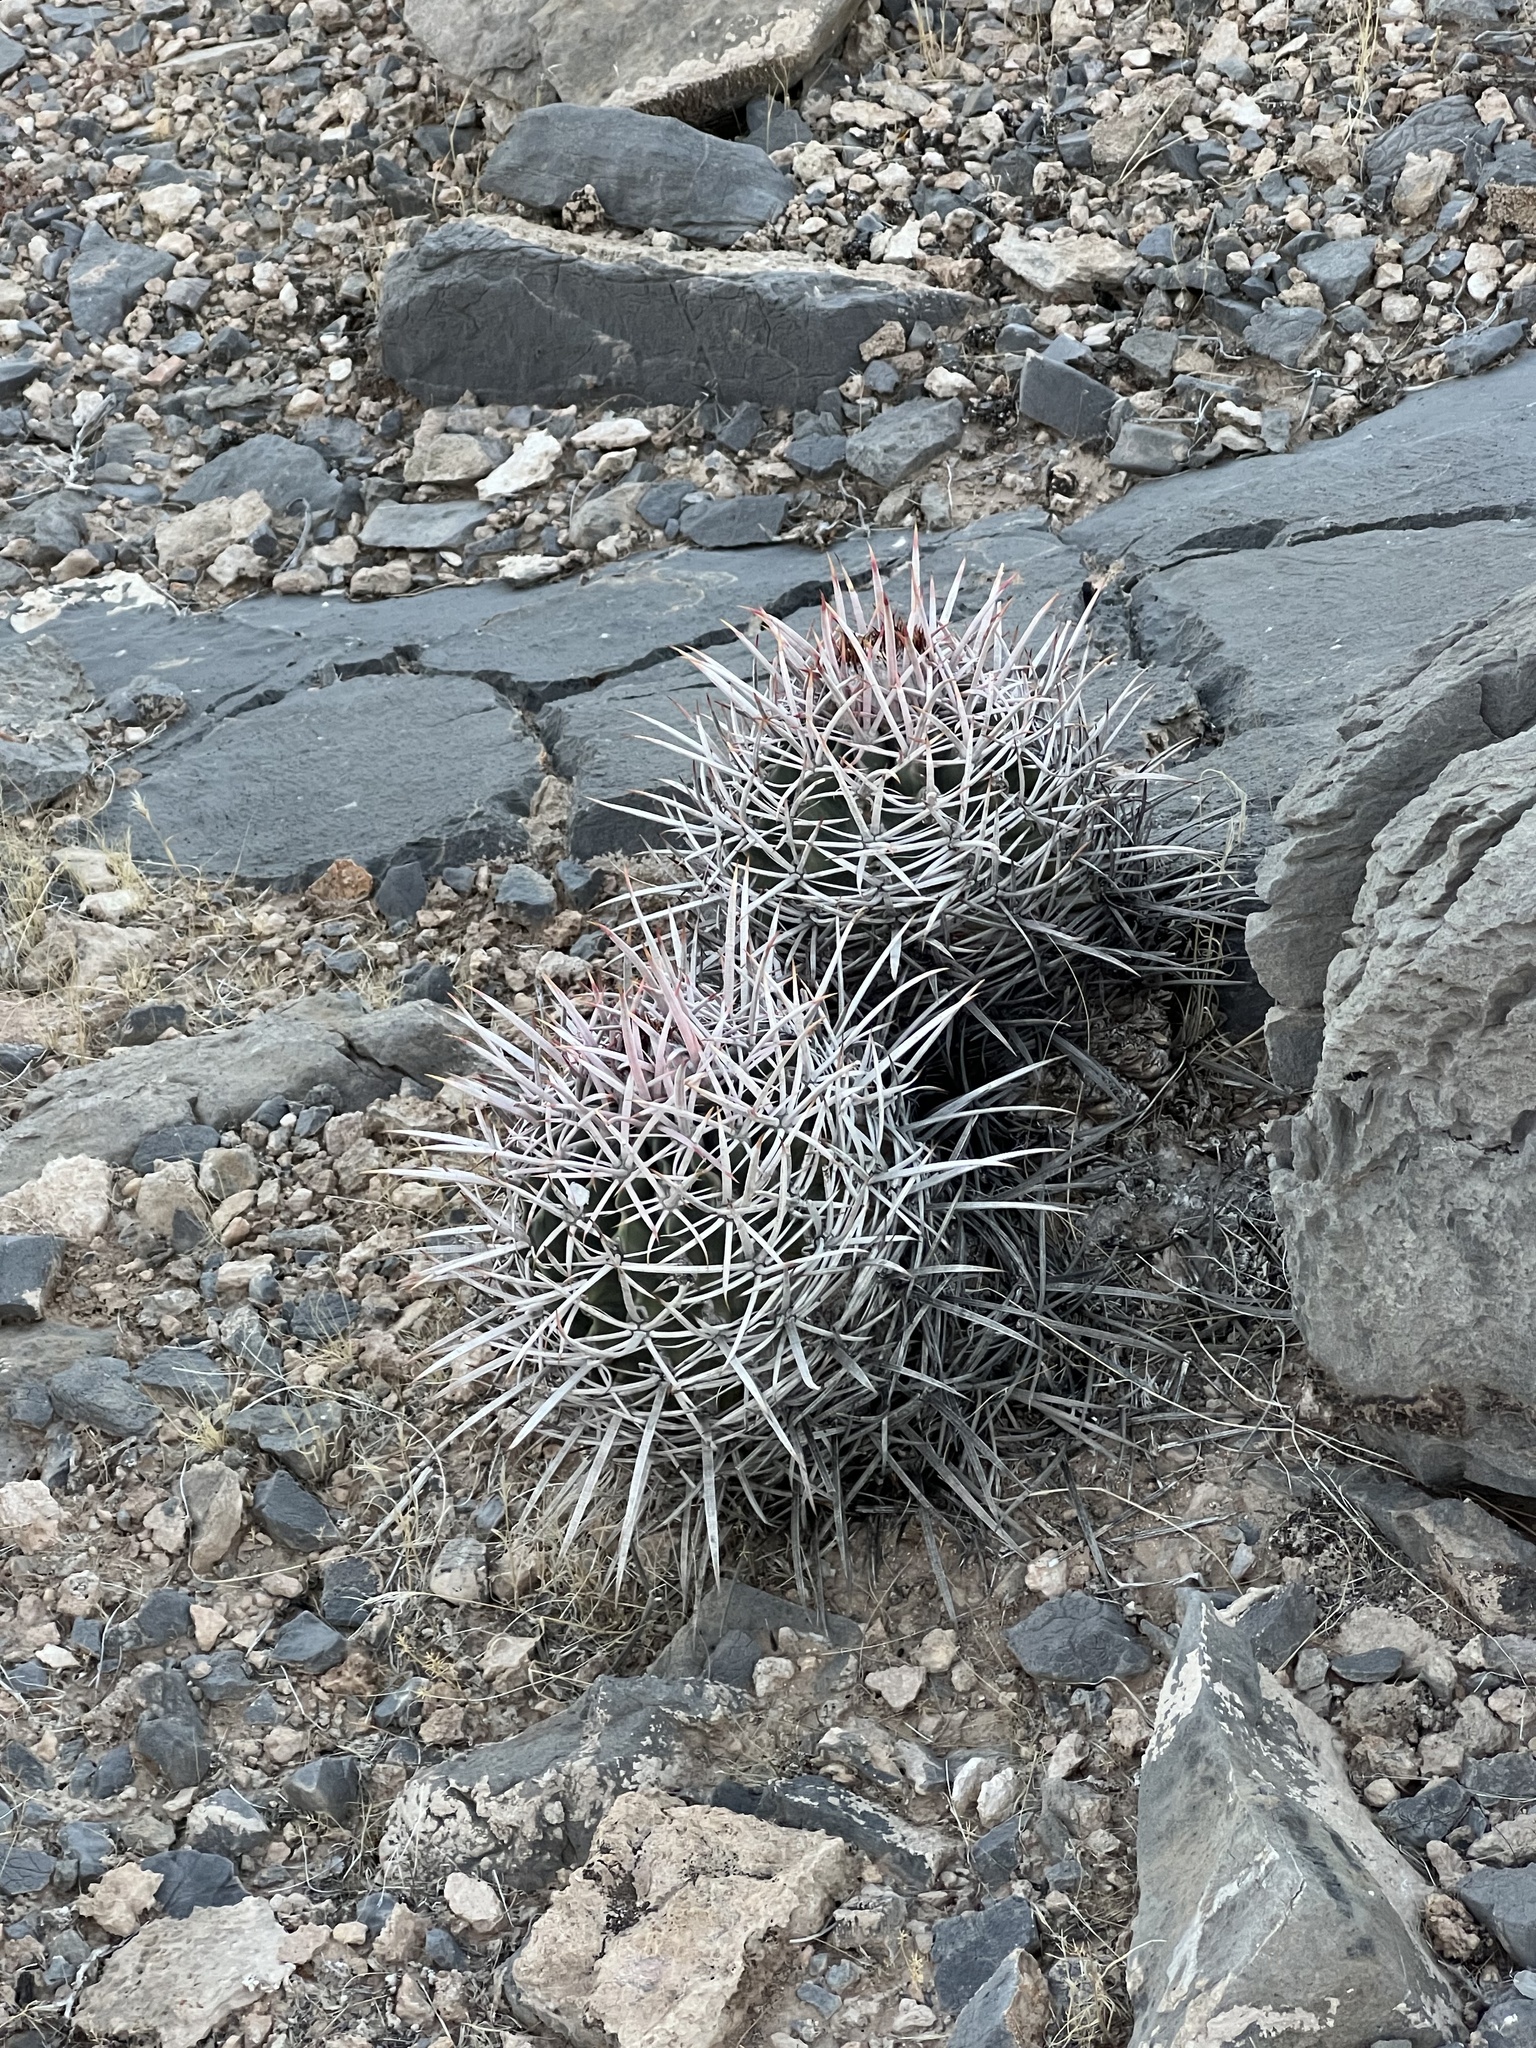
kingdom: Plantae
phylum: Tracheophyta
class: Magnoliopsida
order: Caryophyllales
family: Cactaceae
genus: Echinocactus
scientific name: Echinocactus polycephalus
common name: Cottontop cactus
